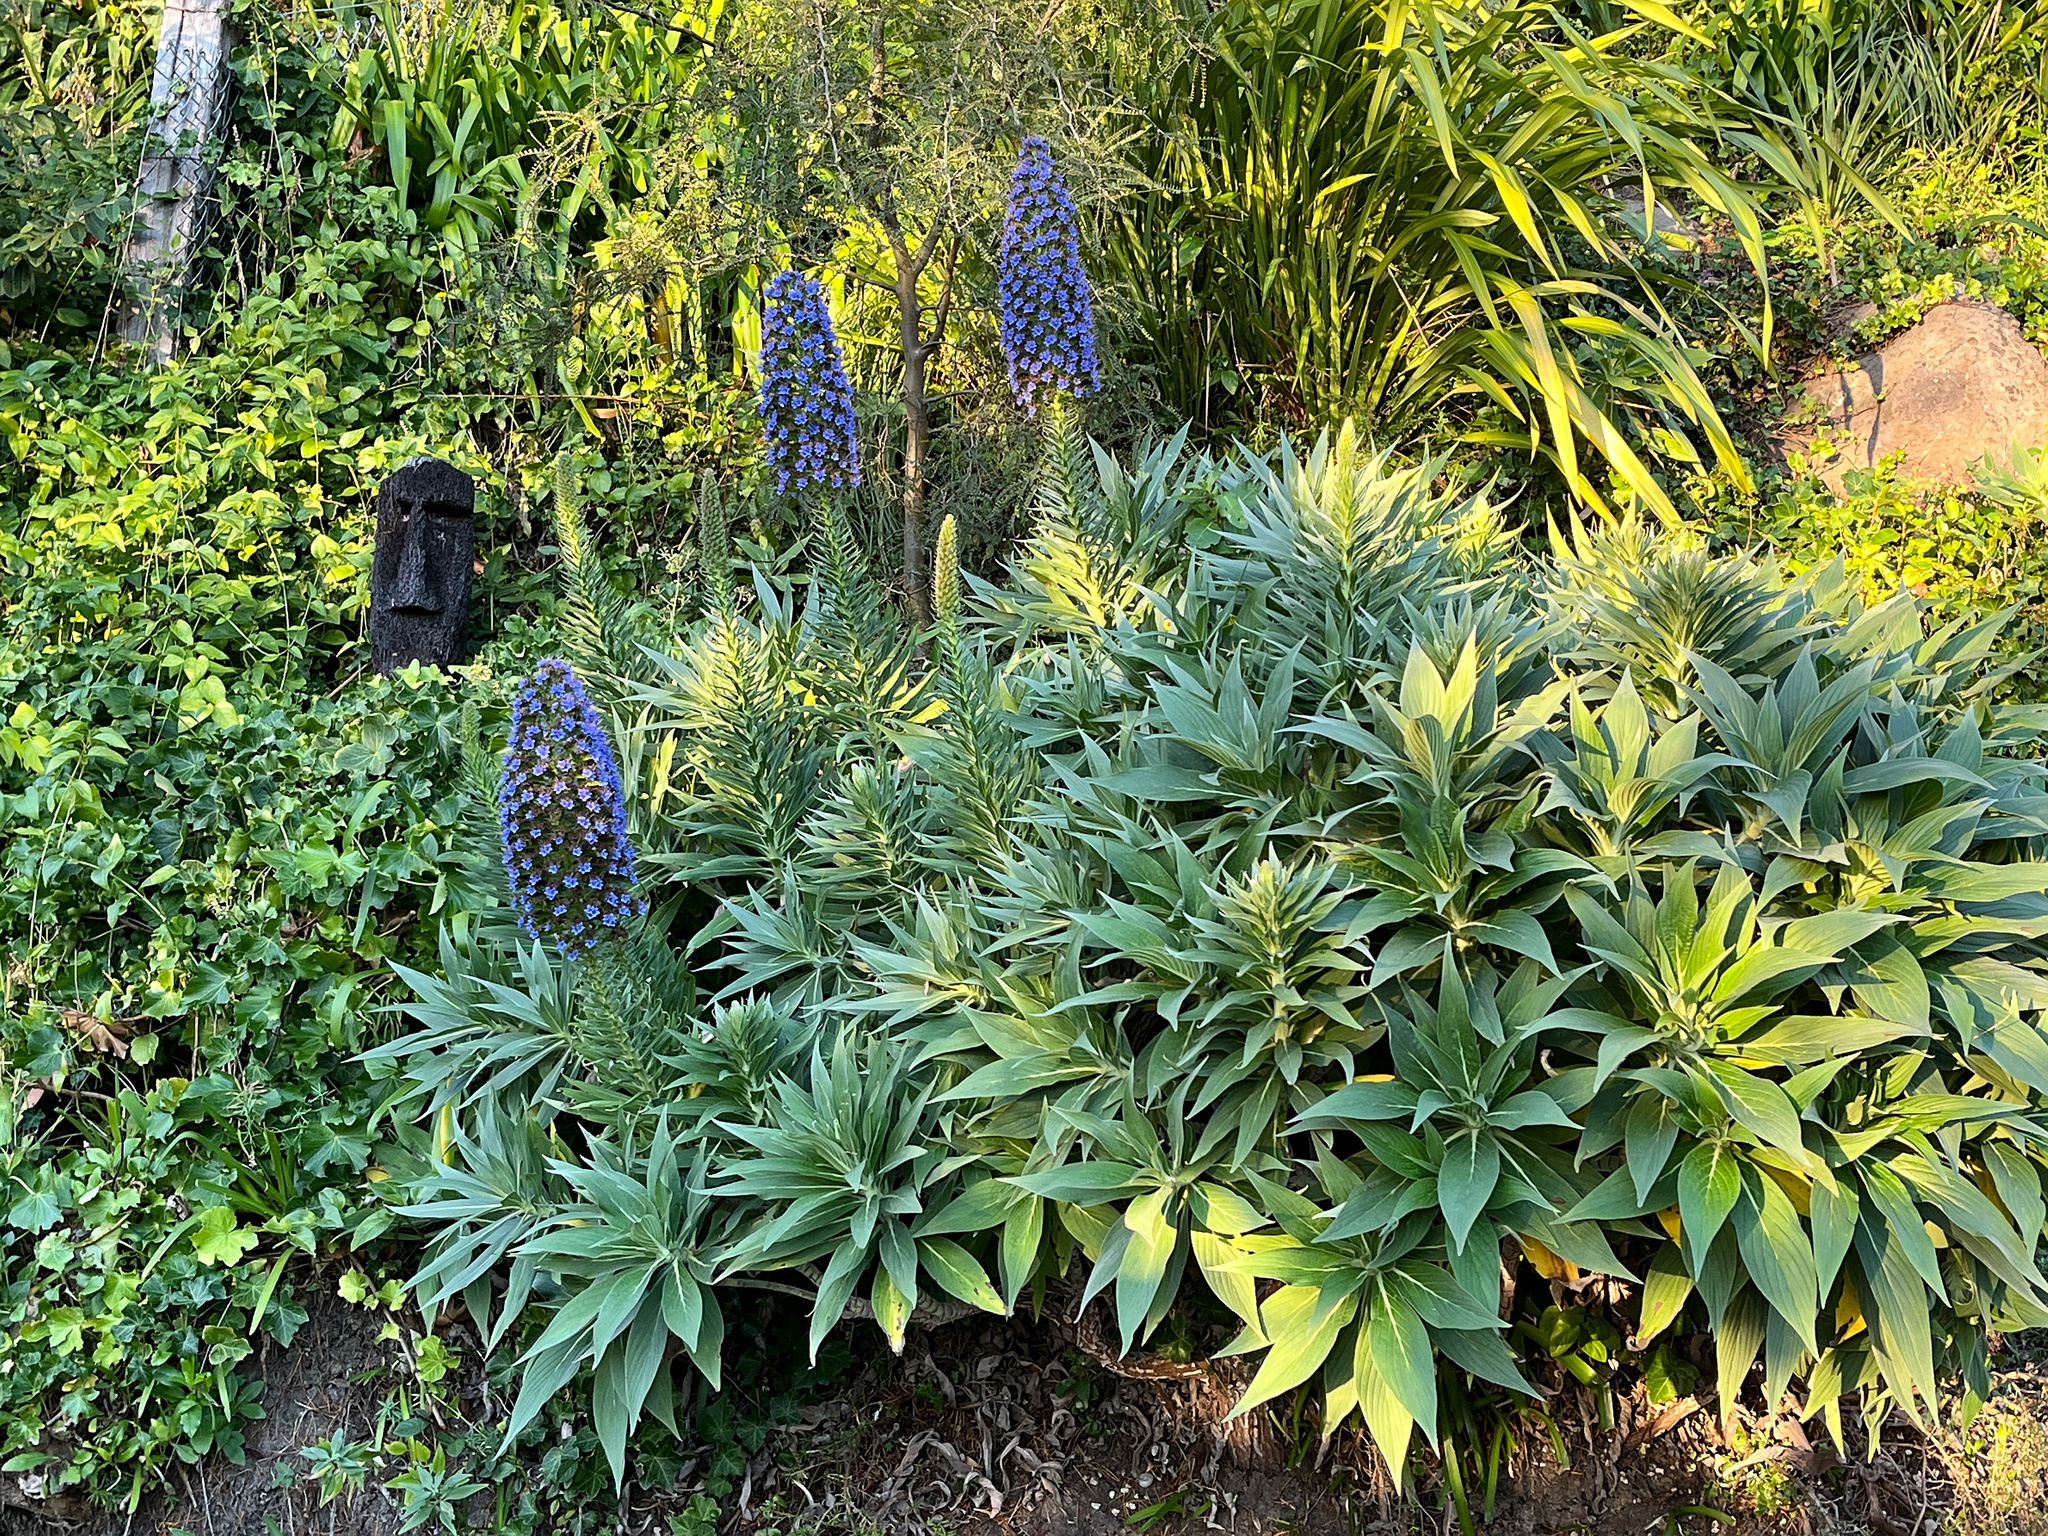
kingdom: Plantae
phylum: Tracheophyta
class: Magnoliopsida
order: Boraginales
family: Boraginaceae
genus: Echium
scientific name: Echium candicans
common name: Pride of madeira
